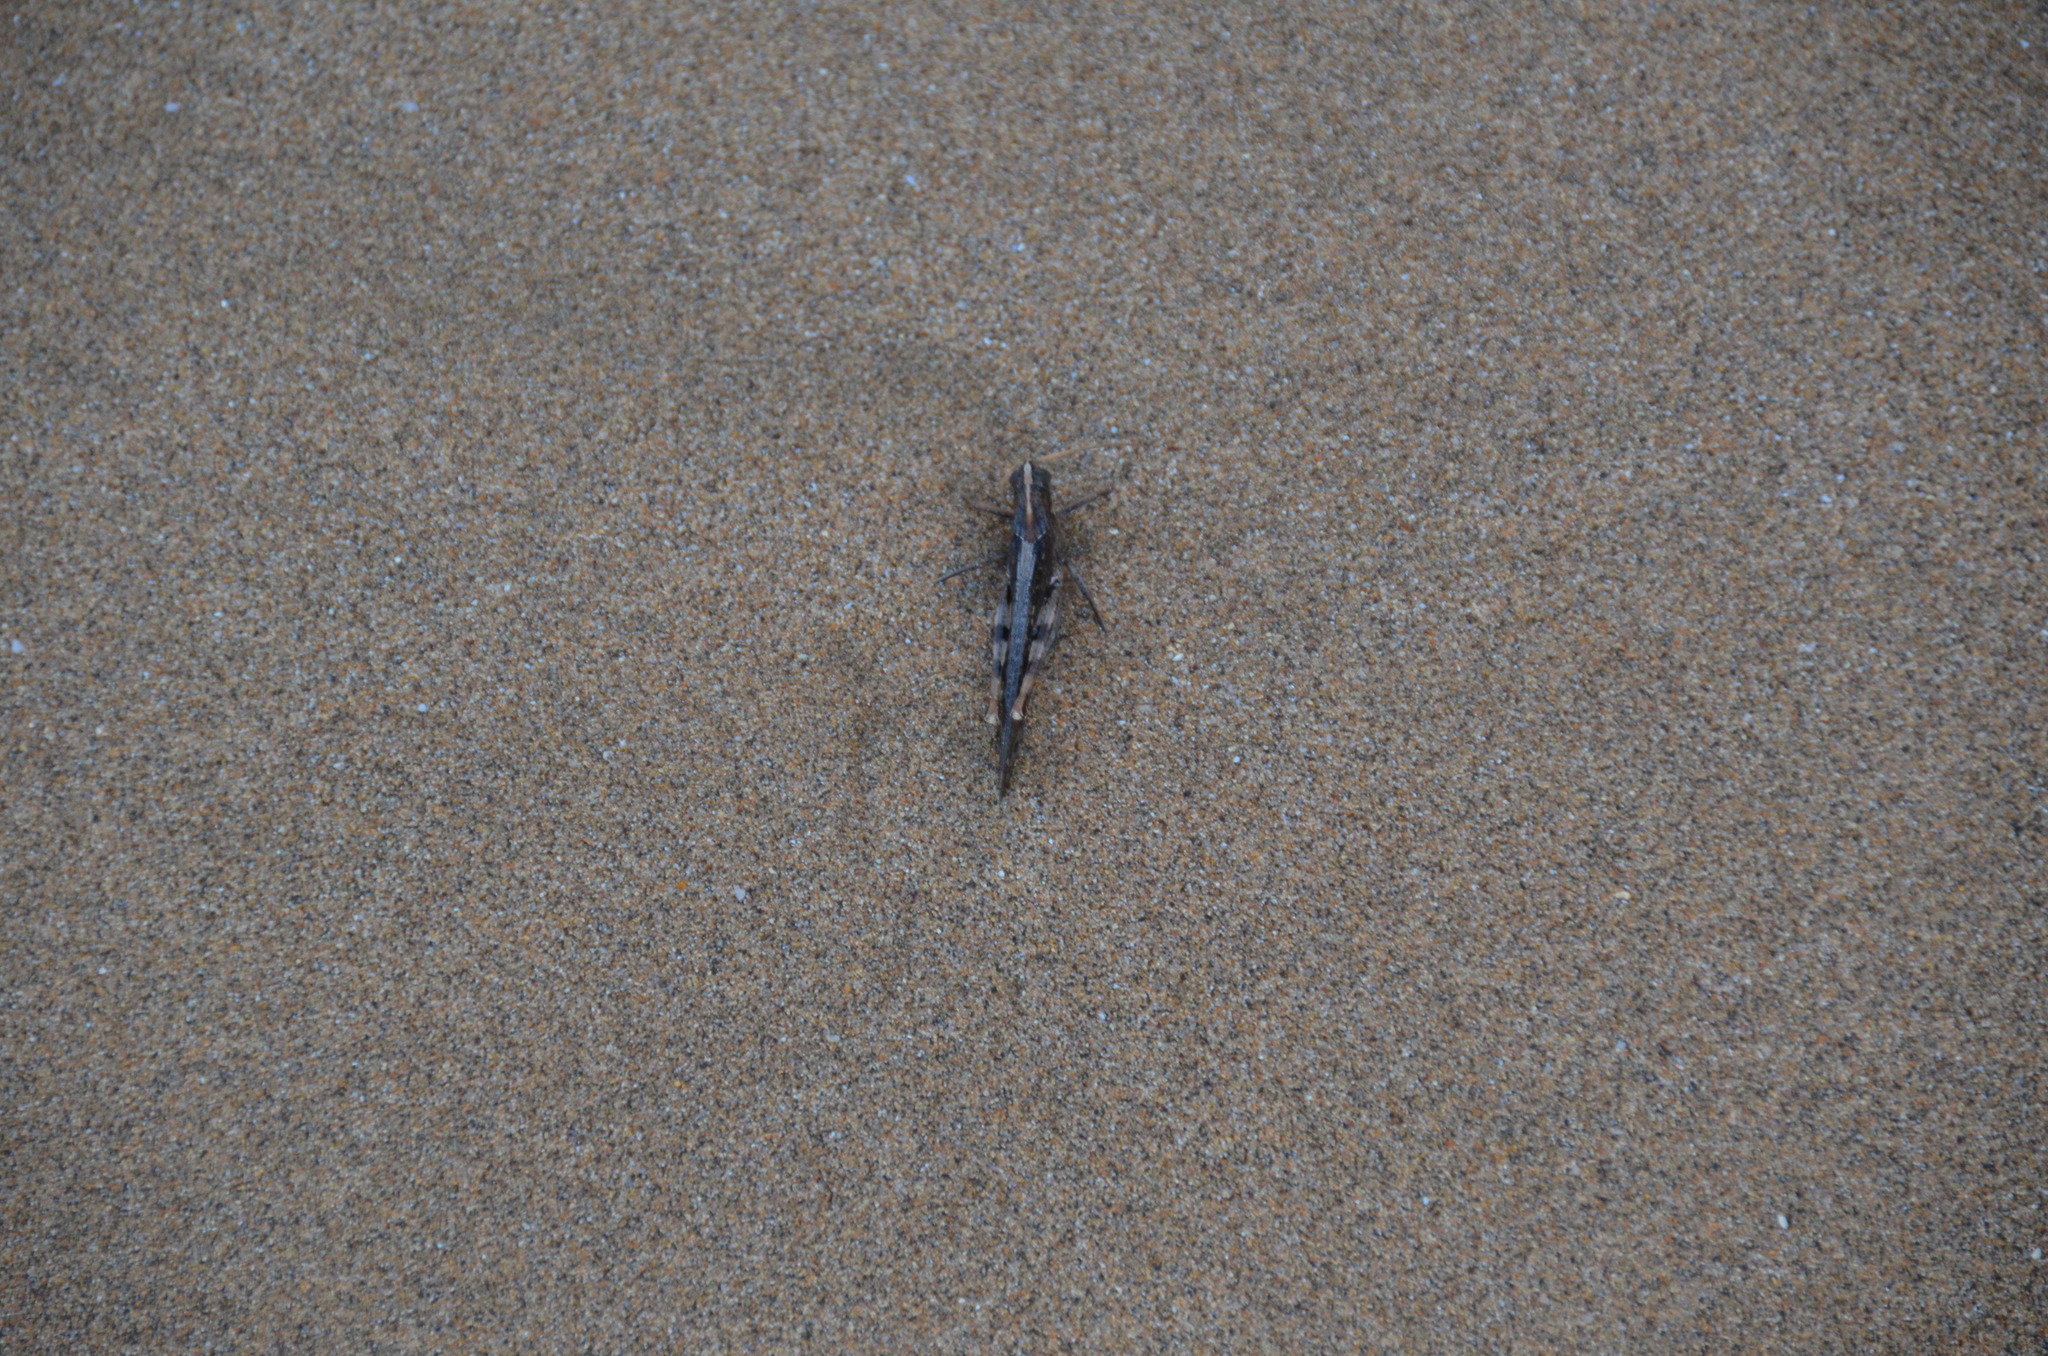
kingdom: Animalia
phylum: Arthropoda
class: Insecta
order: Orthoptera
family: Acrididae
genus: Schistocerca
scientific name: Schistocerca nitens
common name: Vagrant grasshopper
